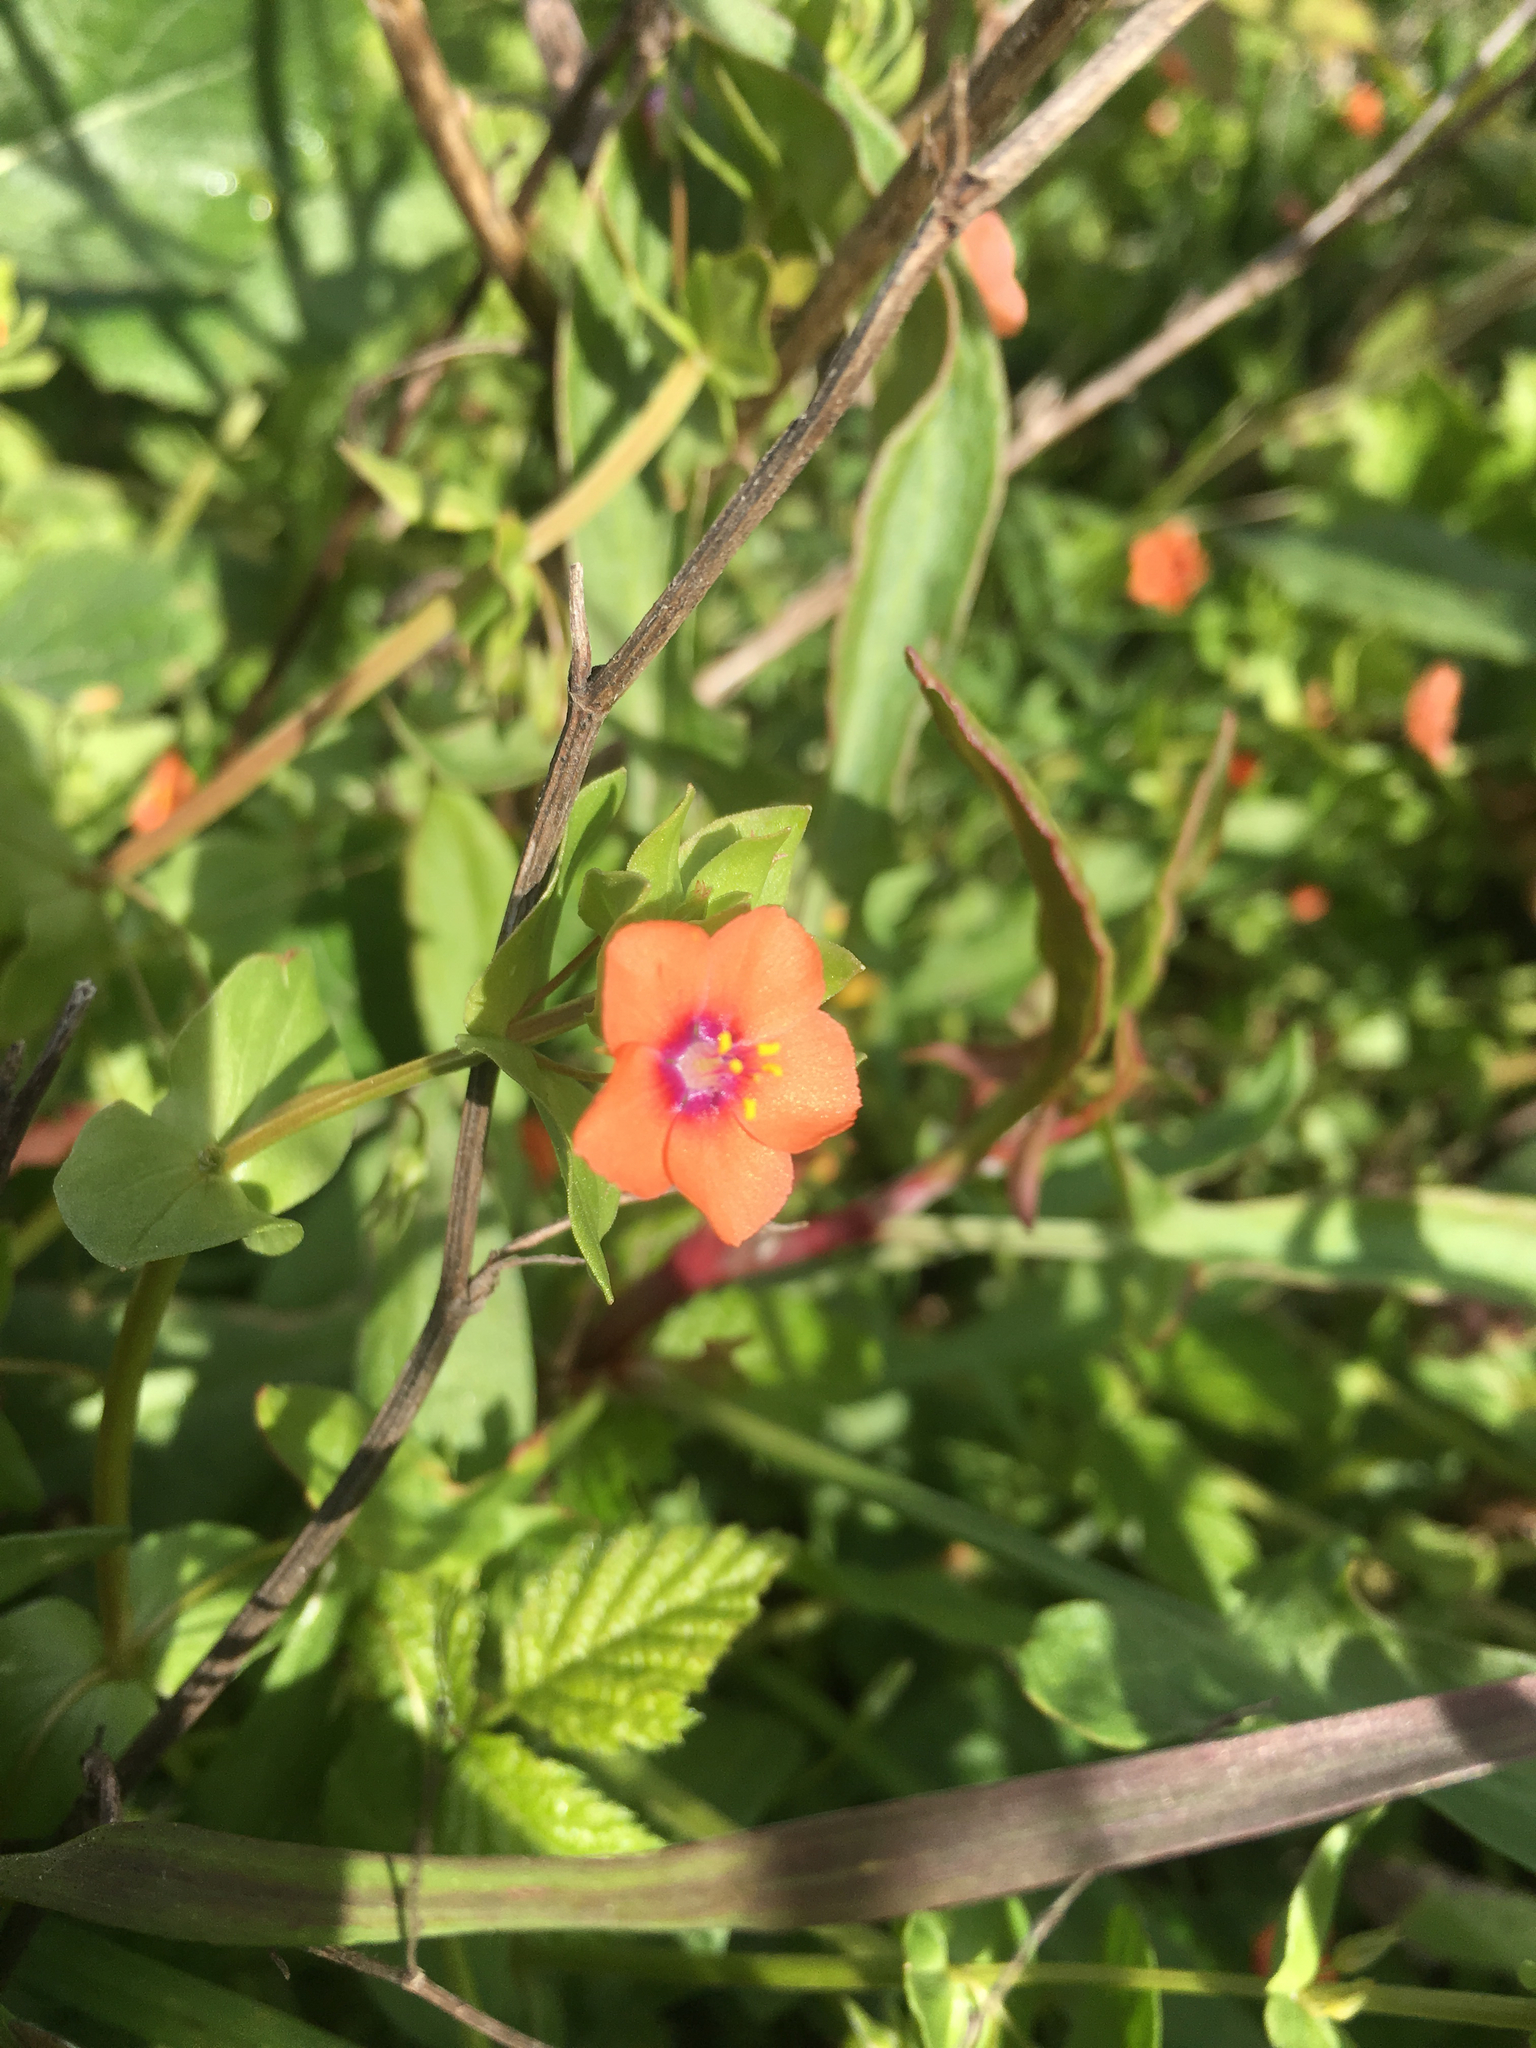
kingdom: Plantae
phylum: Tracheophyta
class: Magnoliopsida
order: Ericales
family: Primulaceae
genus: Lysimachia
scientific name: Lysimachia arvensis
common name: Scarlet pimpernel
